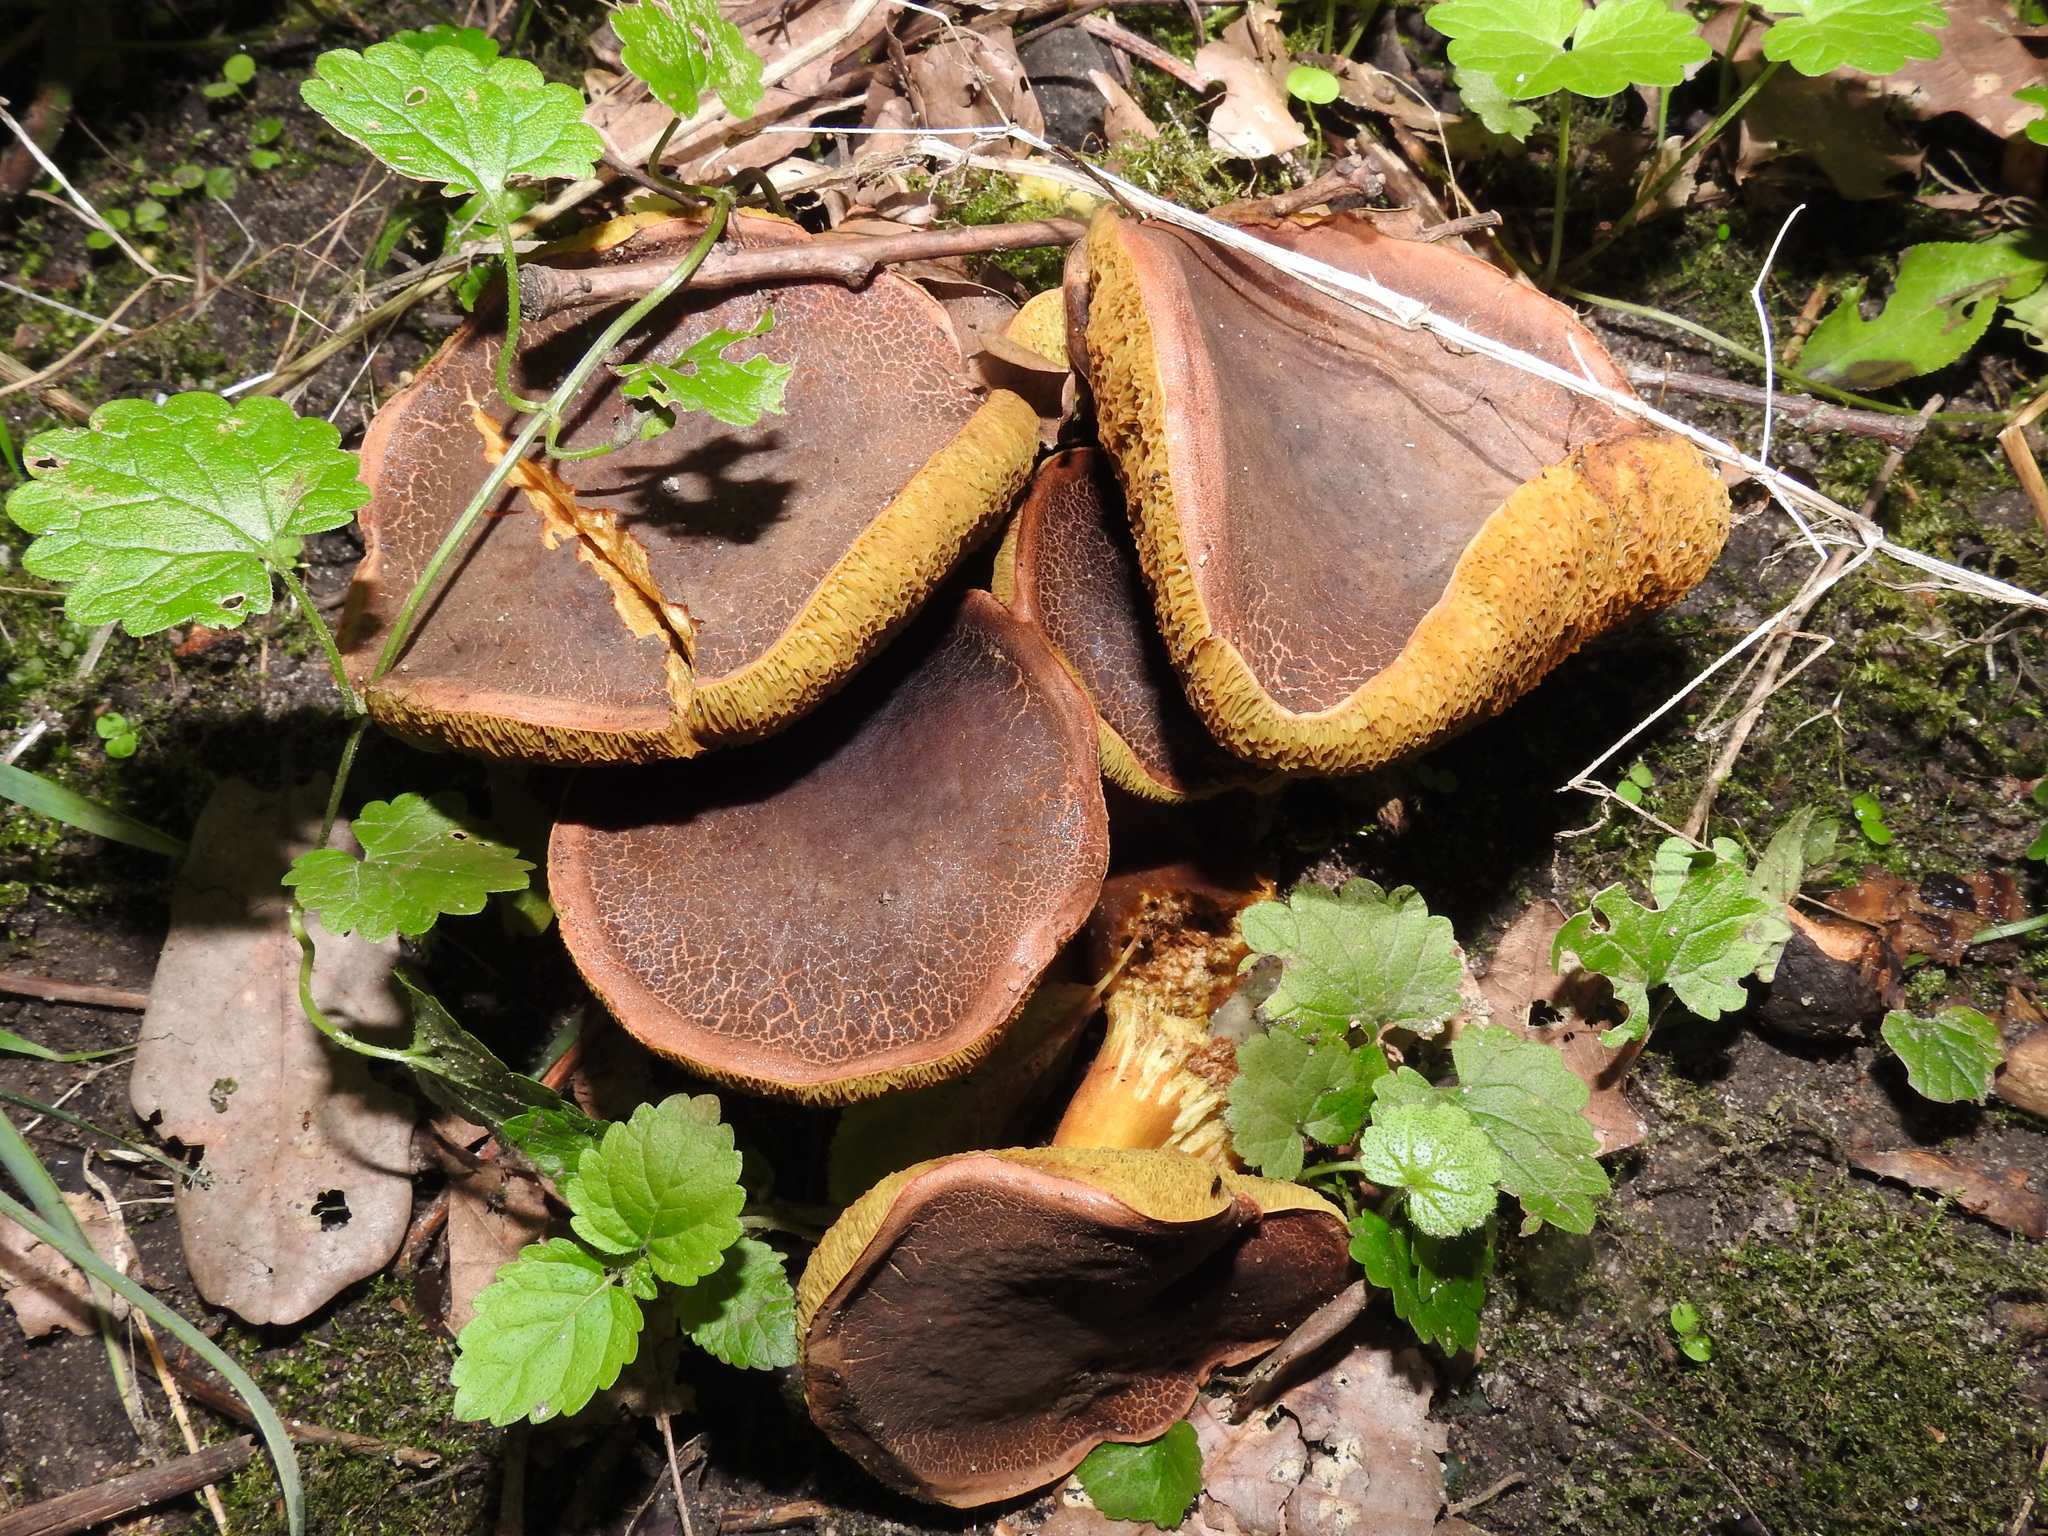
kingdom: Fungi
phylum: Basidiomycota
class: Agaricomycetes
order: Boletales
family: Boletaceae
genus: Xerocomellus
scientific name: Xerocomellus chrysenteron
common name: Red-cracking bolete
